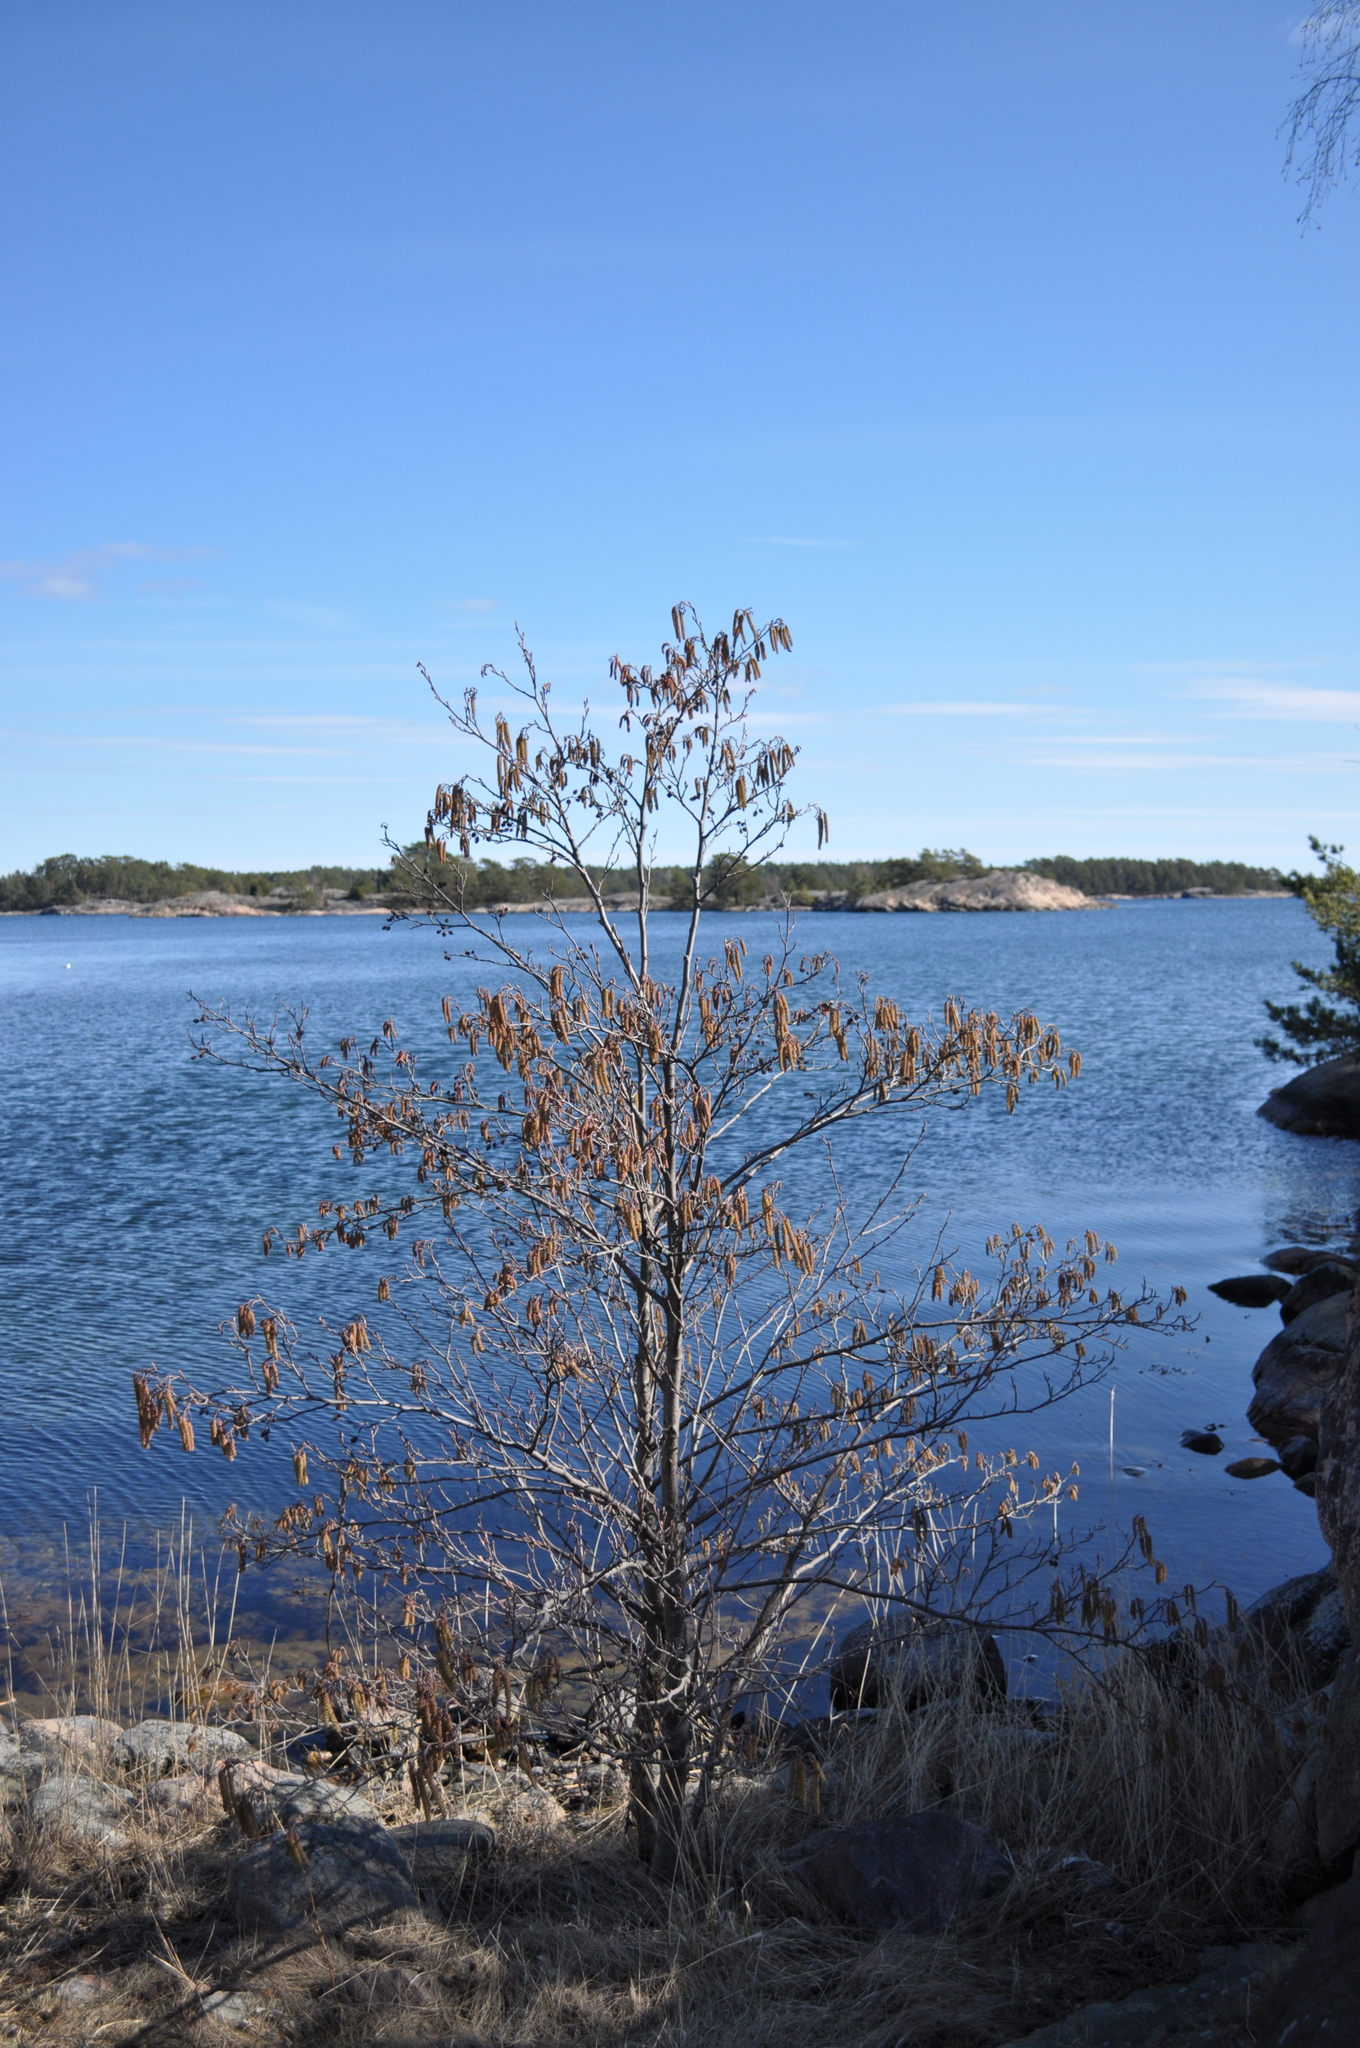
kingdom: Plantae
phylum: Tracheophyta
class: Magnoliopsida
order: Fagales
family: Betulaceae
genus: Alnus
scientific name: Alnus glutinosa
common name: Black alder
